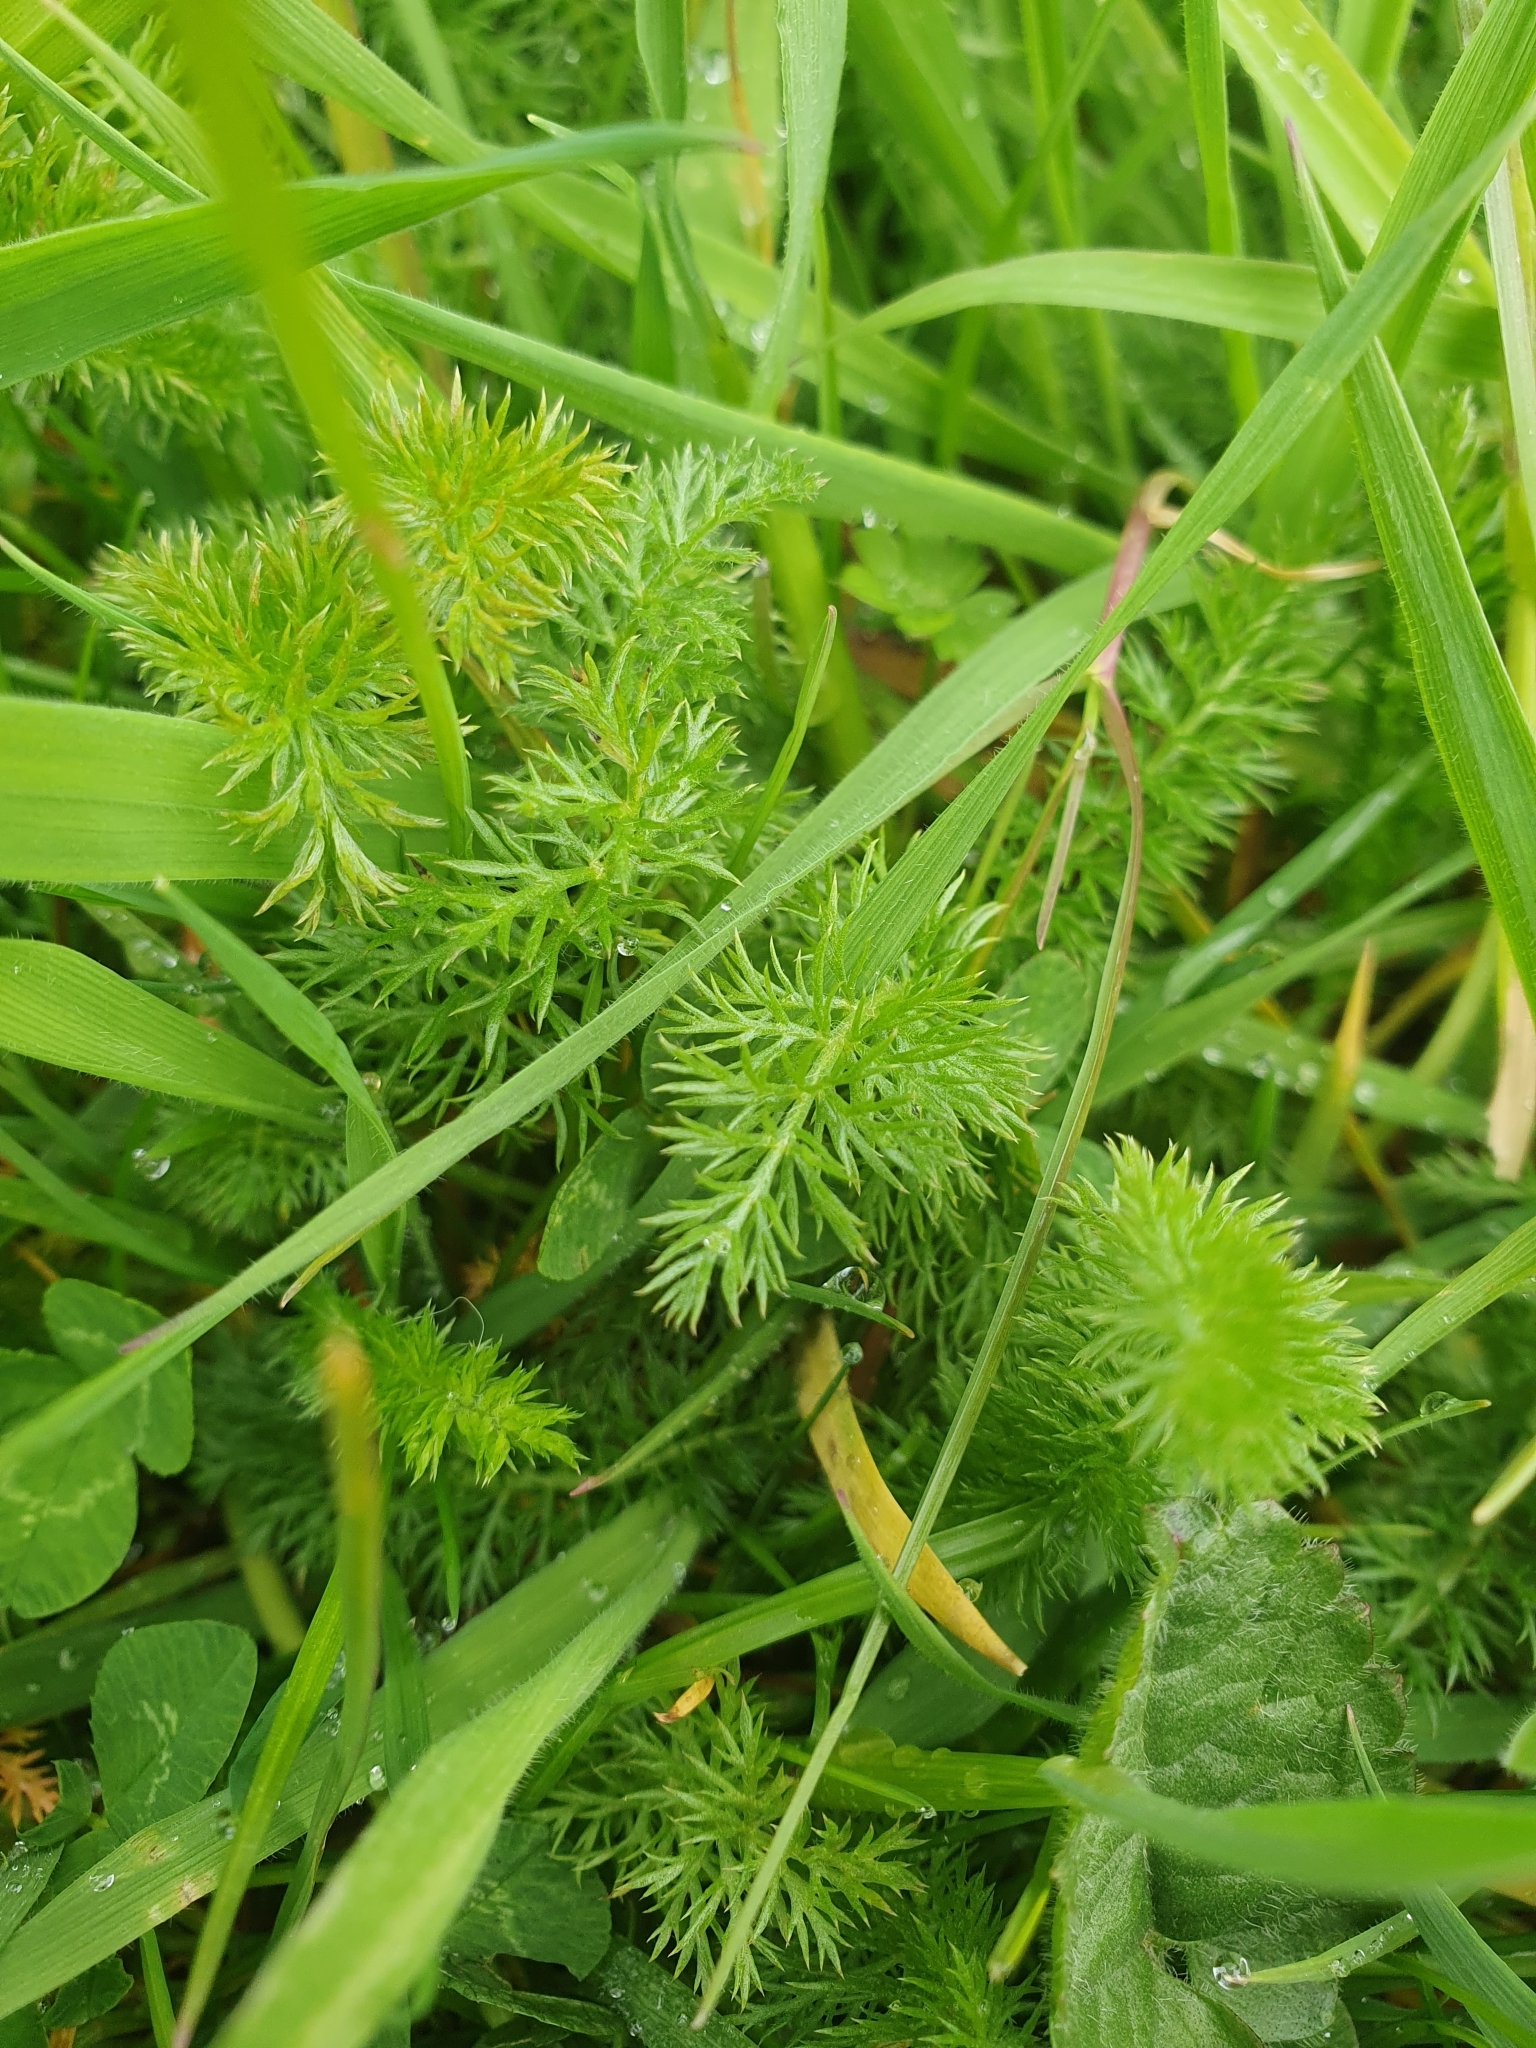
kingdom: Plantae
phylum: Tracheophyta
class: Magnoliopsida
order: Asterales
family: Asteraceae
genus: Achillea
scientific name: Achillea millefolium
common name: Yarrow
